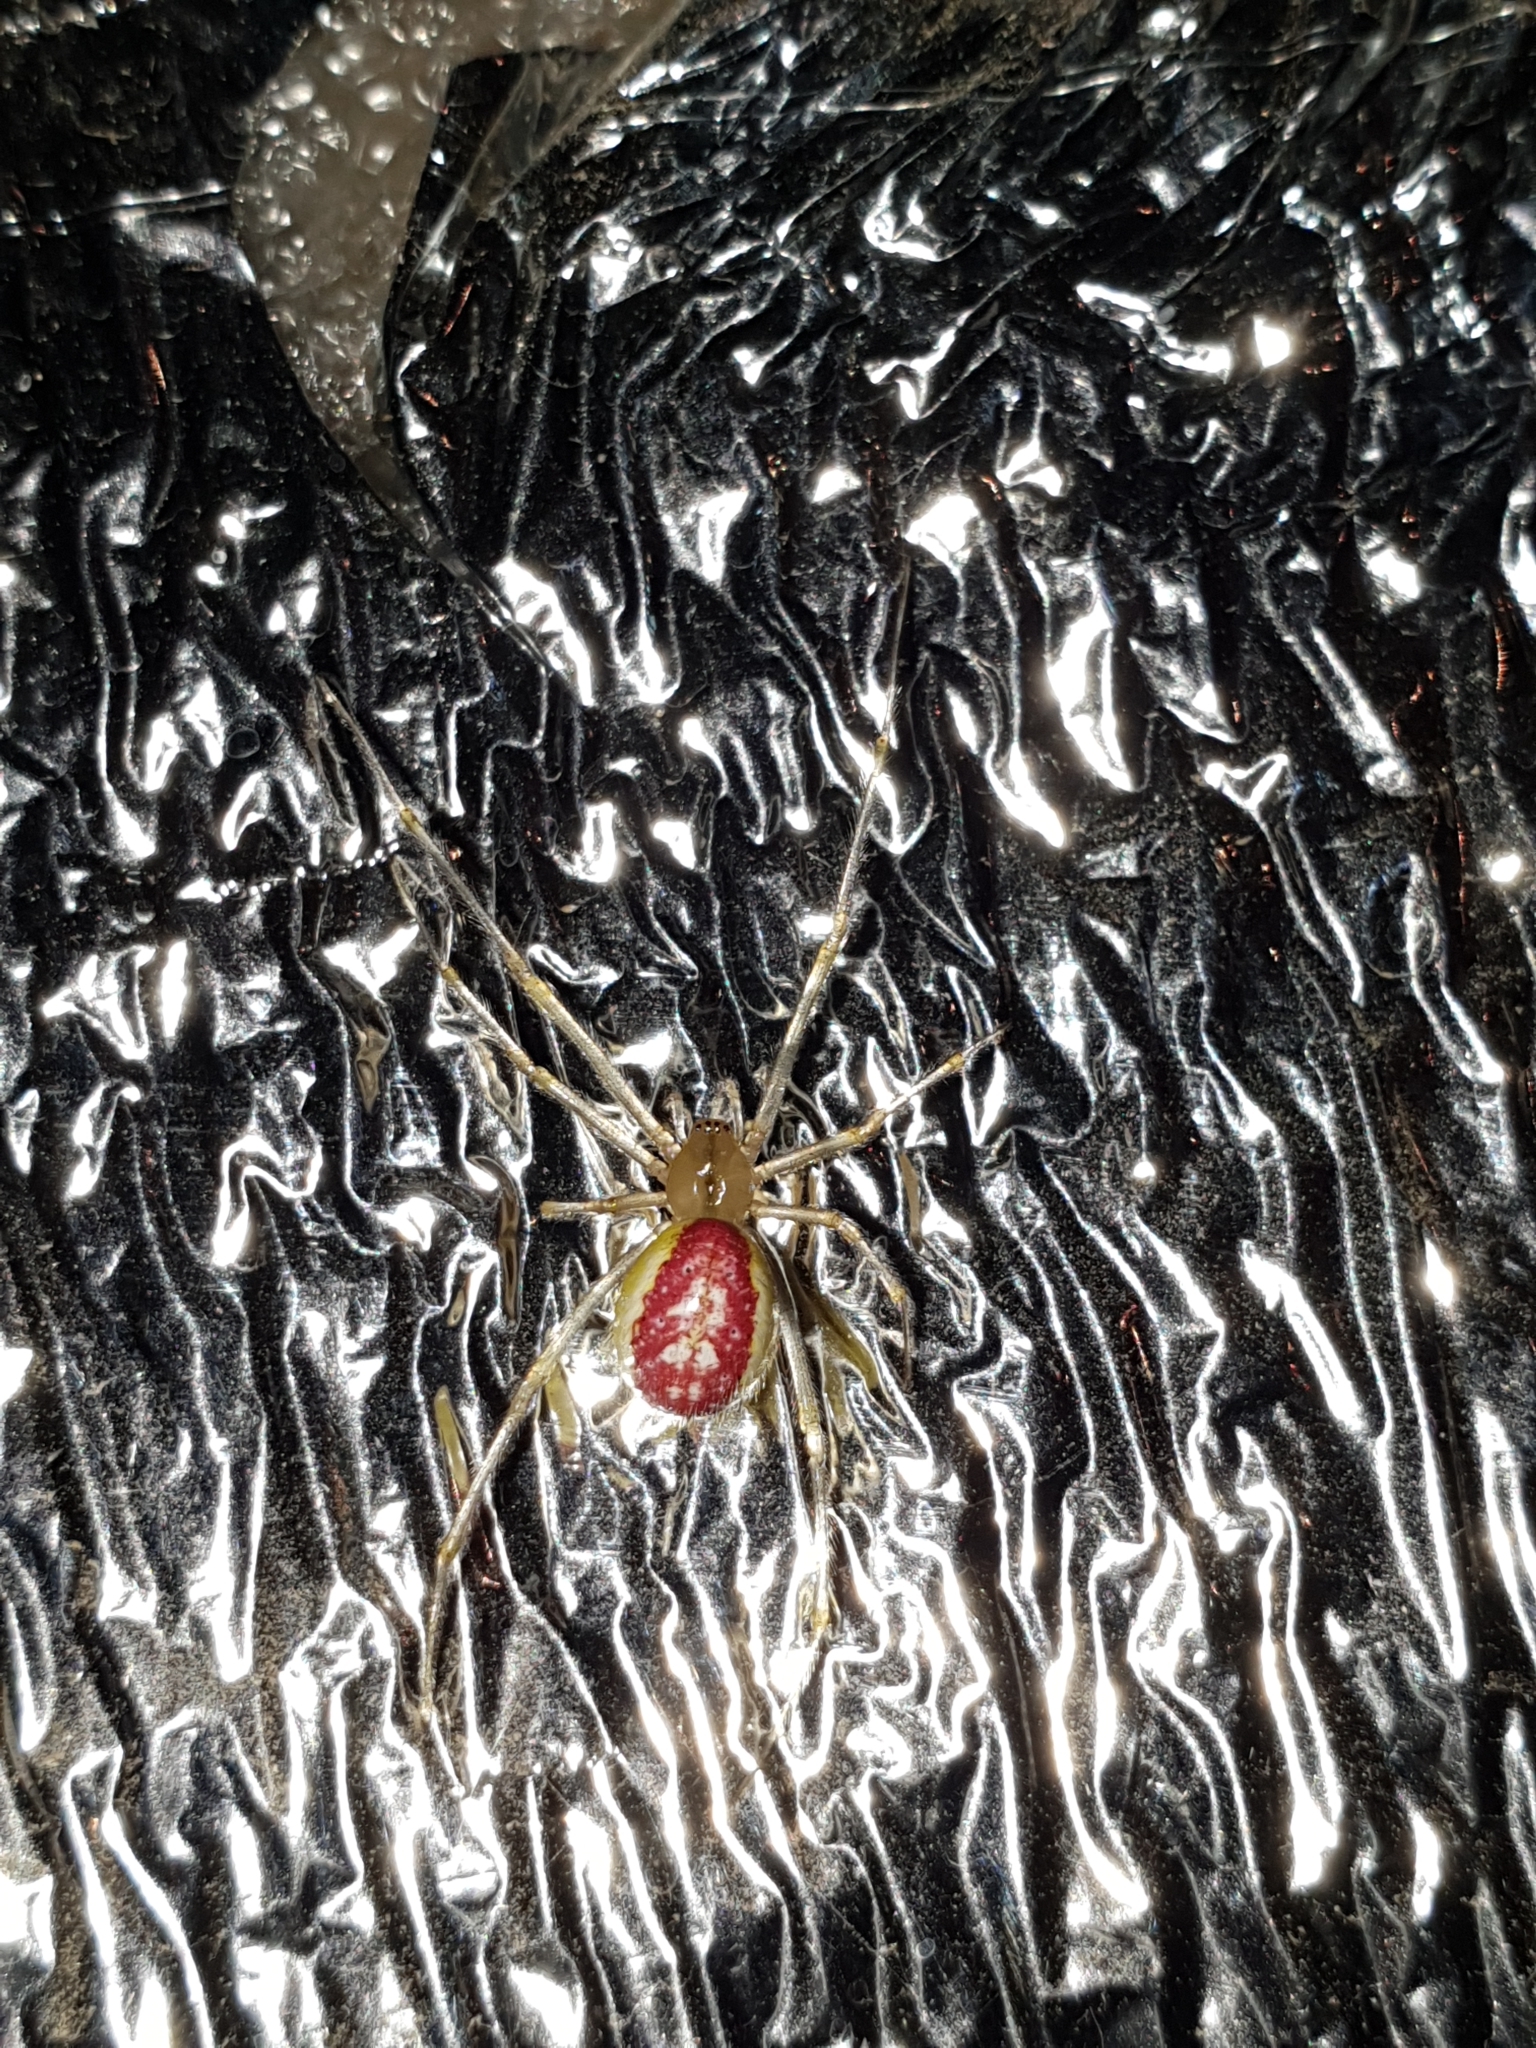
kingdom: Animalia
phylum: Arthropoda
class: Arachnida
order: Araneae
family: Theridiidae
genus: Enoplognatha
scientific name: Enoplognatha ovata
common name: Common candy-striped spider
